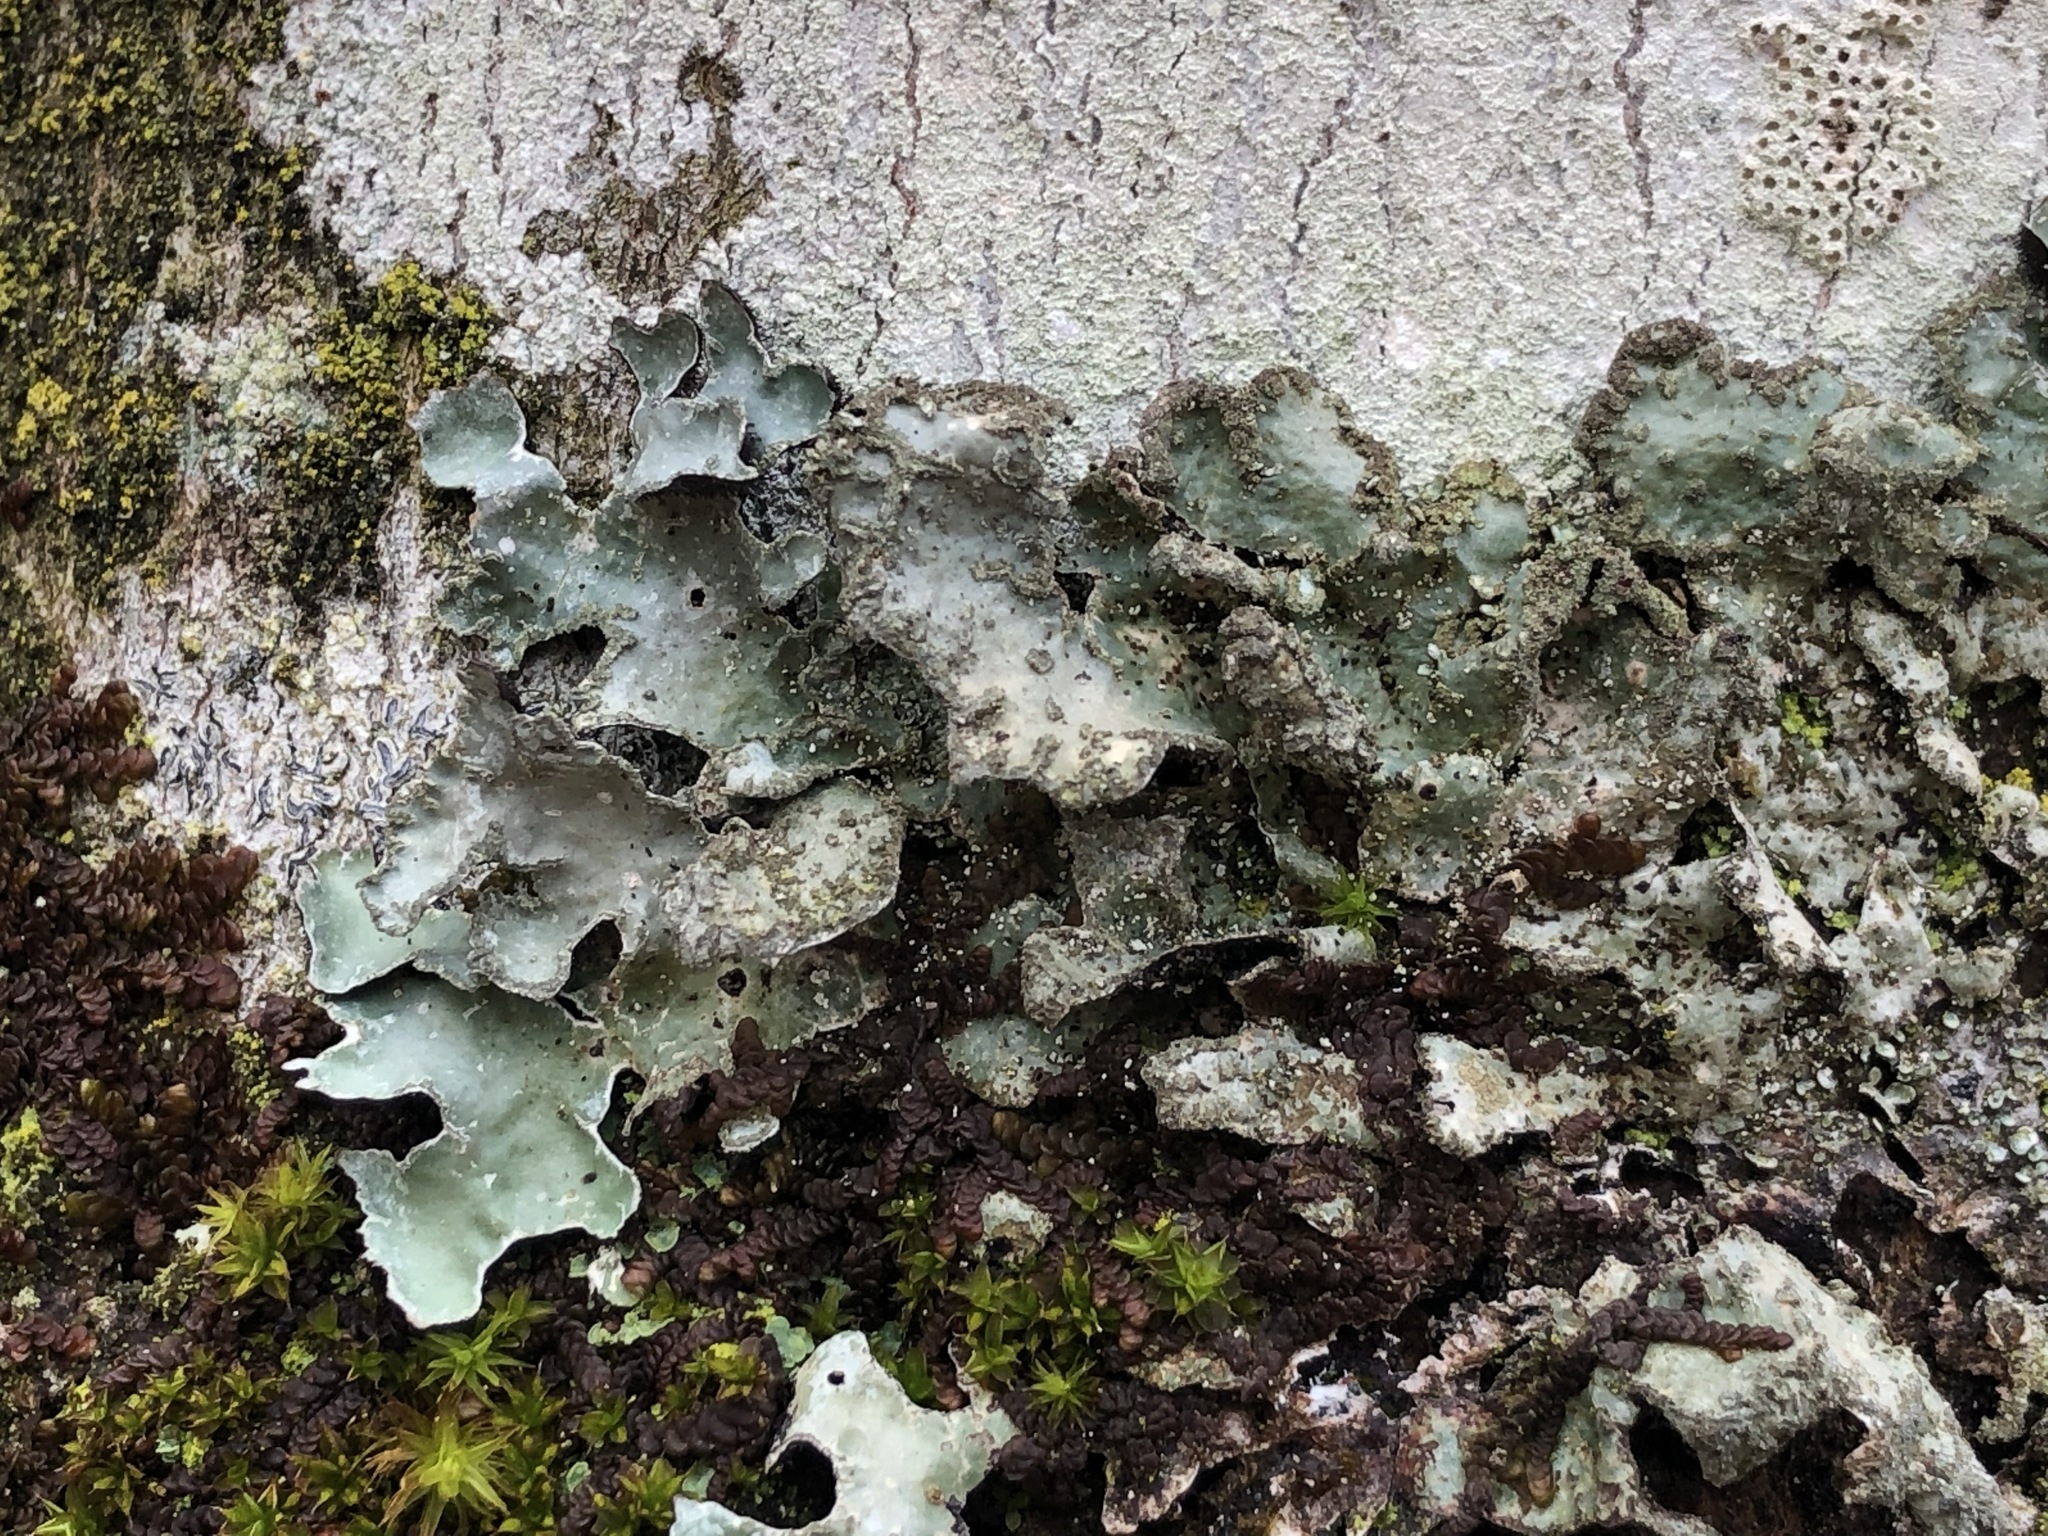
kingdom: Fungi
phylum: Ascomycota
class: Lecanoromycetes
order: Lecanorales
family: Parmeliaceae
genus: Parmelia
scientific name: Parmelia sulcata
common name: Netted shield lichen
